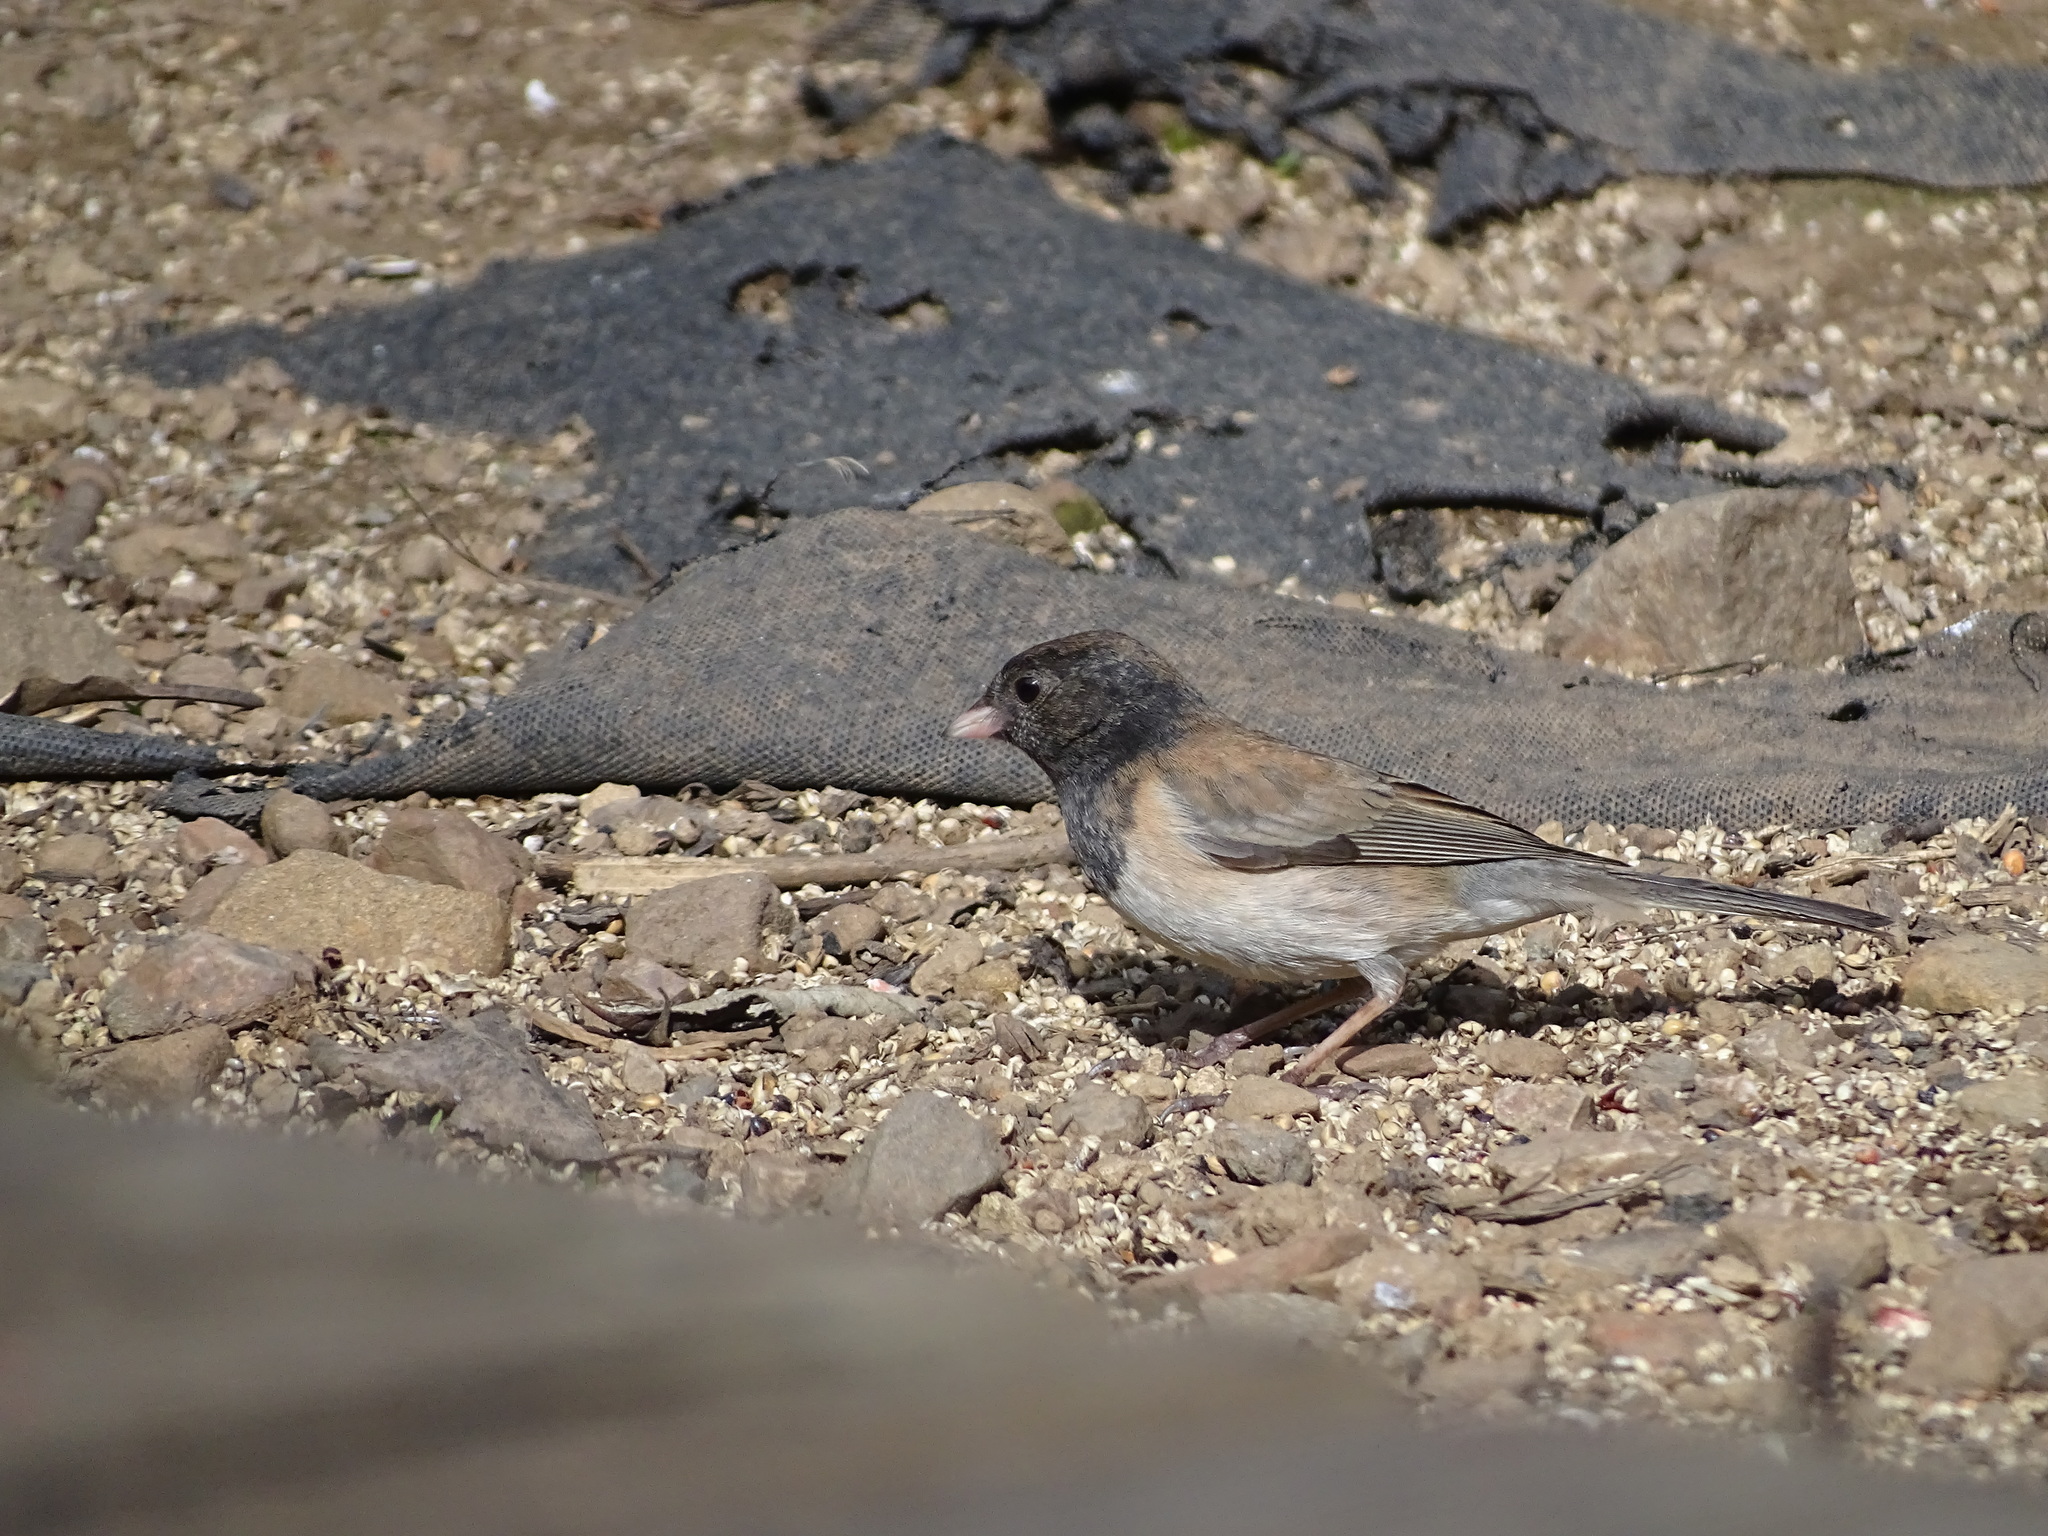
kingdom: Animalia
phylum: Chordata
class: Aves
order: Passeriformes
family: Passerellidae
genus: Junco
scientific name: Junco hyemalis
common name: Dark-eyed junco
